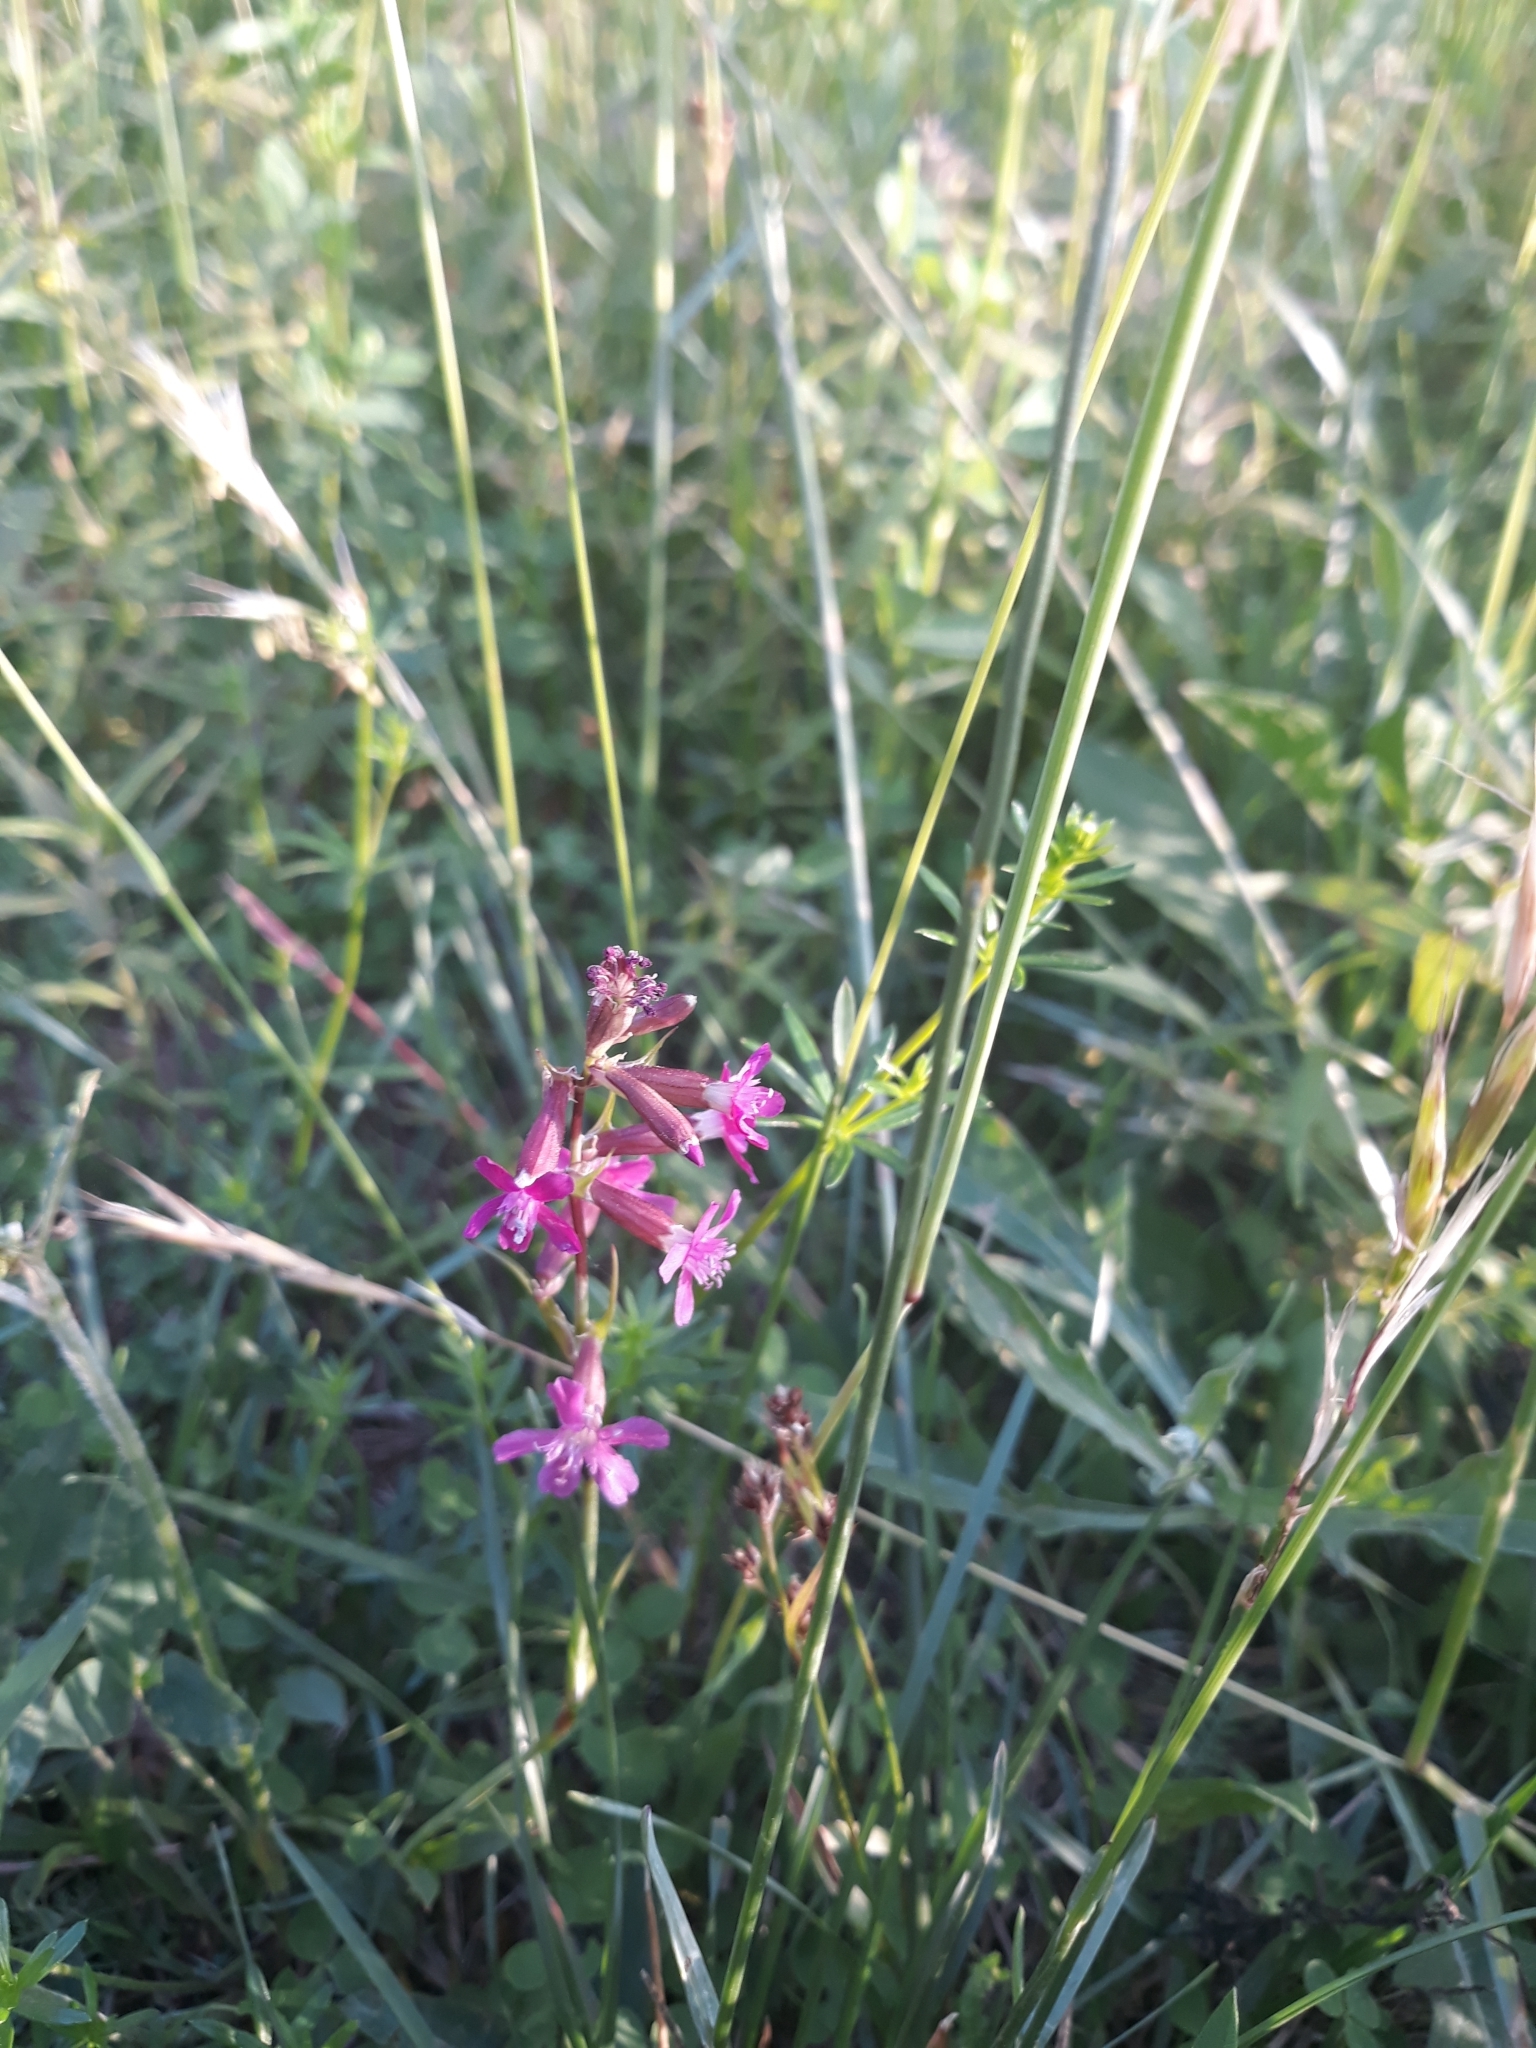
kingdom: Plantae
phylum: Tracheophyta
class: Magnoliopsida
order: Caryophyllales
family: Caryophyllaceae
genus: Viscaria
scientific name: Viscaria vulgaris
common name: Clammy campion
